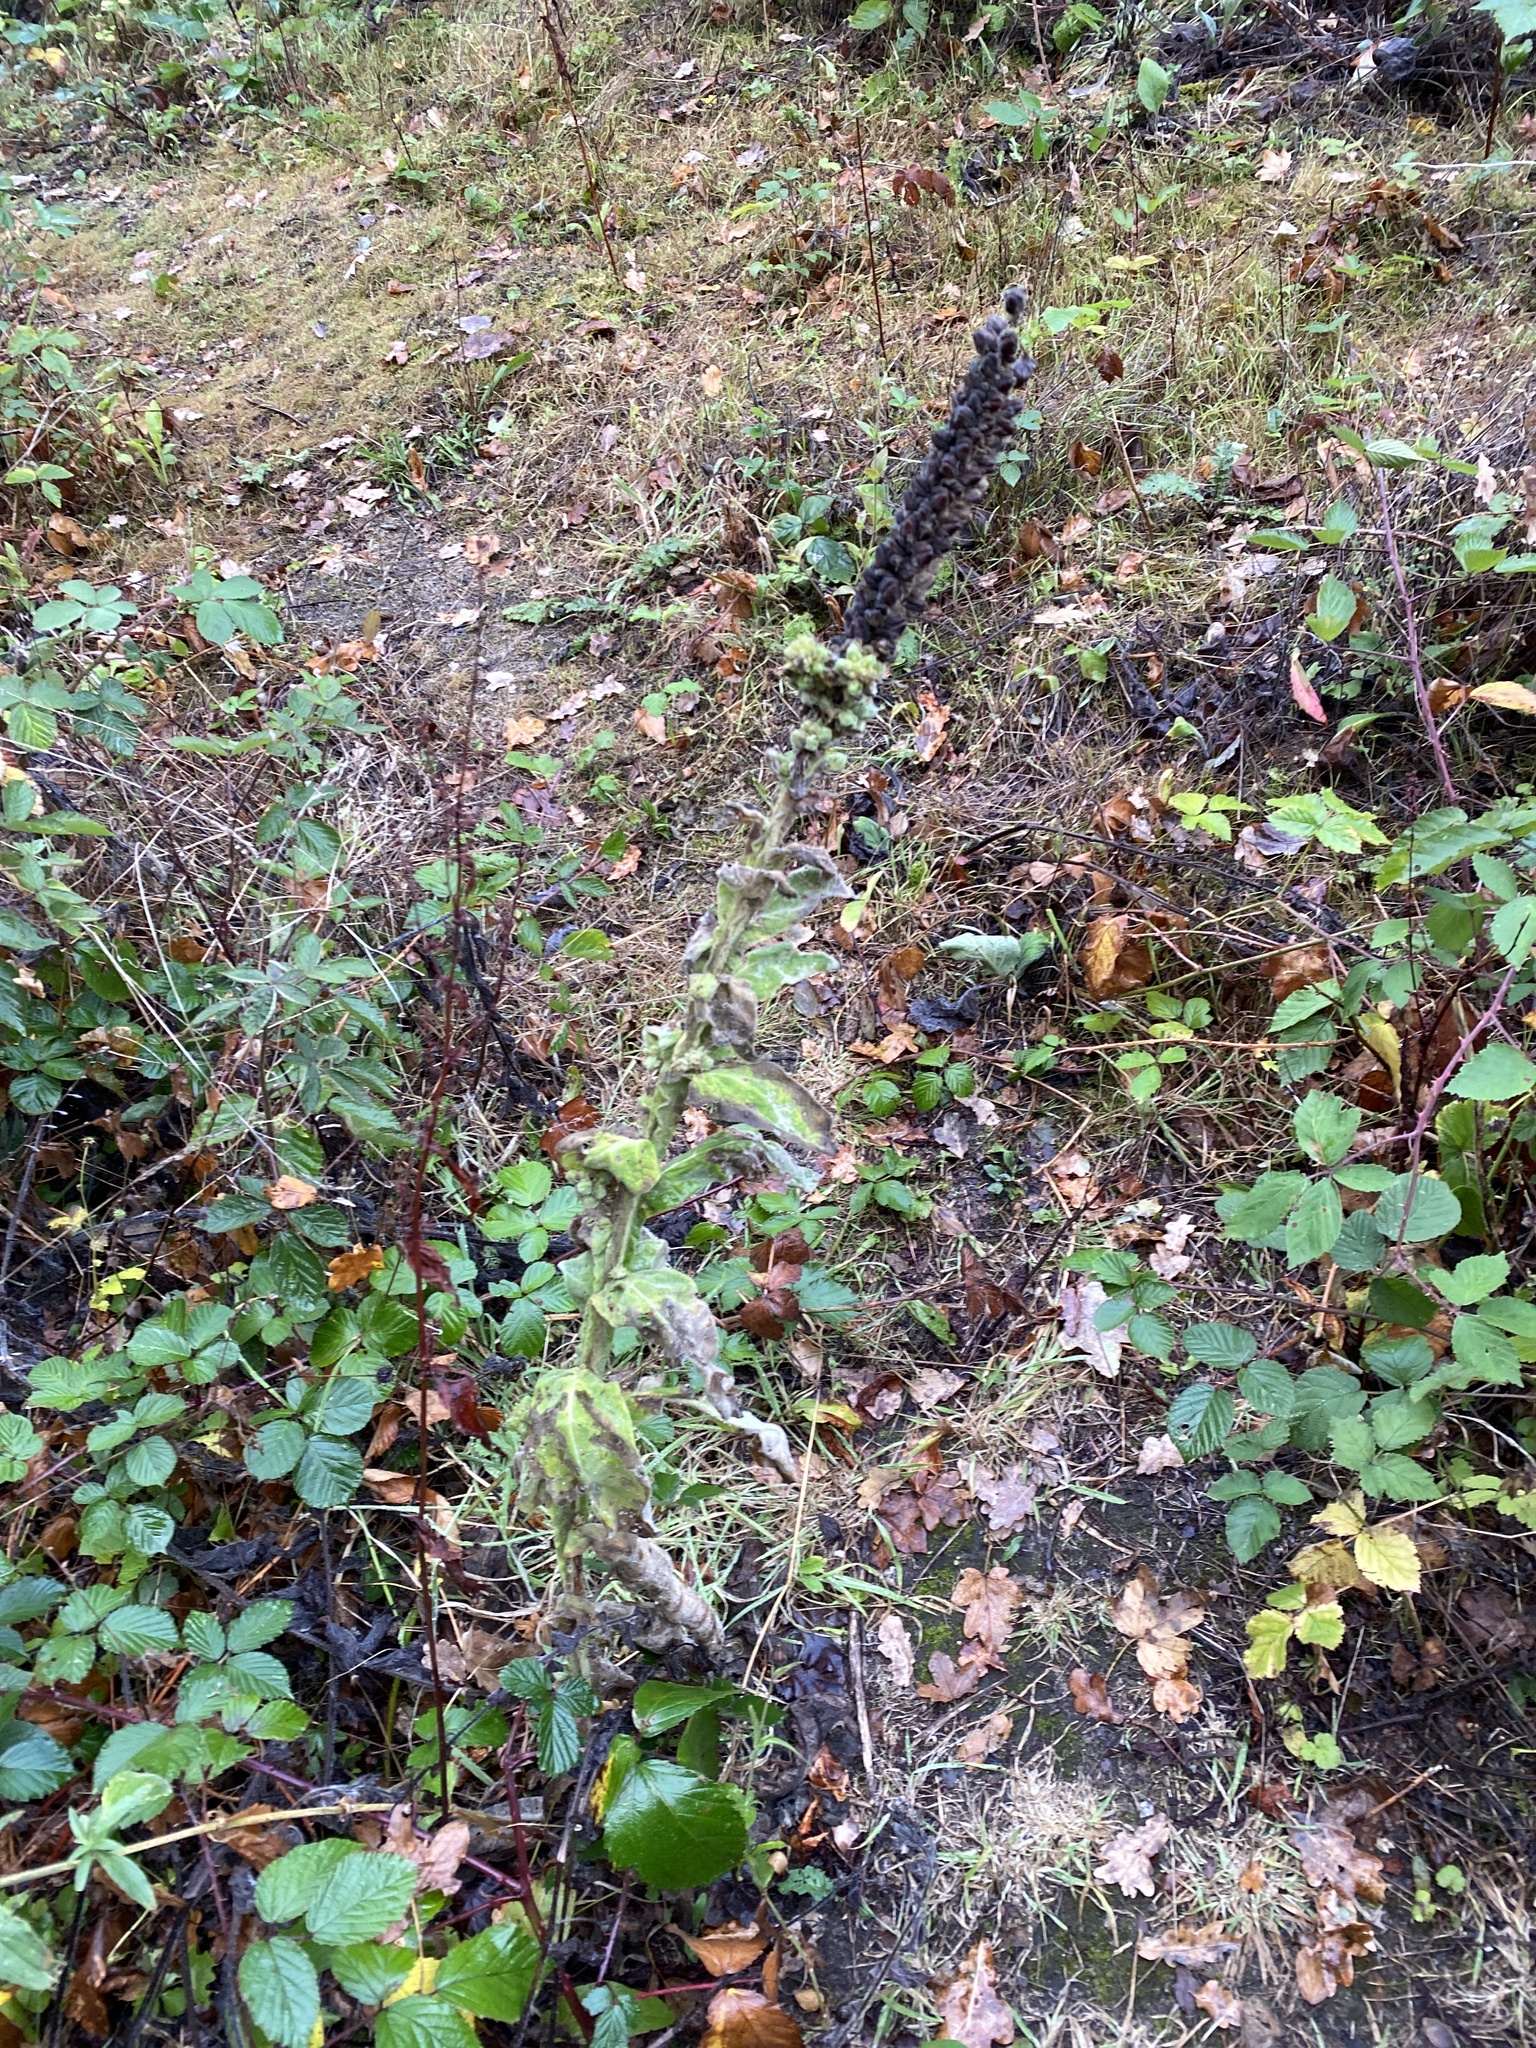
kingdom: Plantae
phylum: Tracheophyta
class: Magnoliopsida
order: Lamiales
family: Scrophulariaceae
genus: Verbascum
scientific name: Verbascum thapsus
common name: Common mullein
